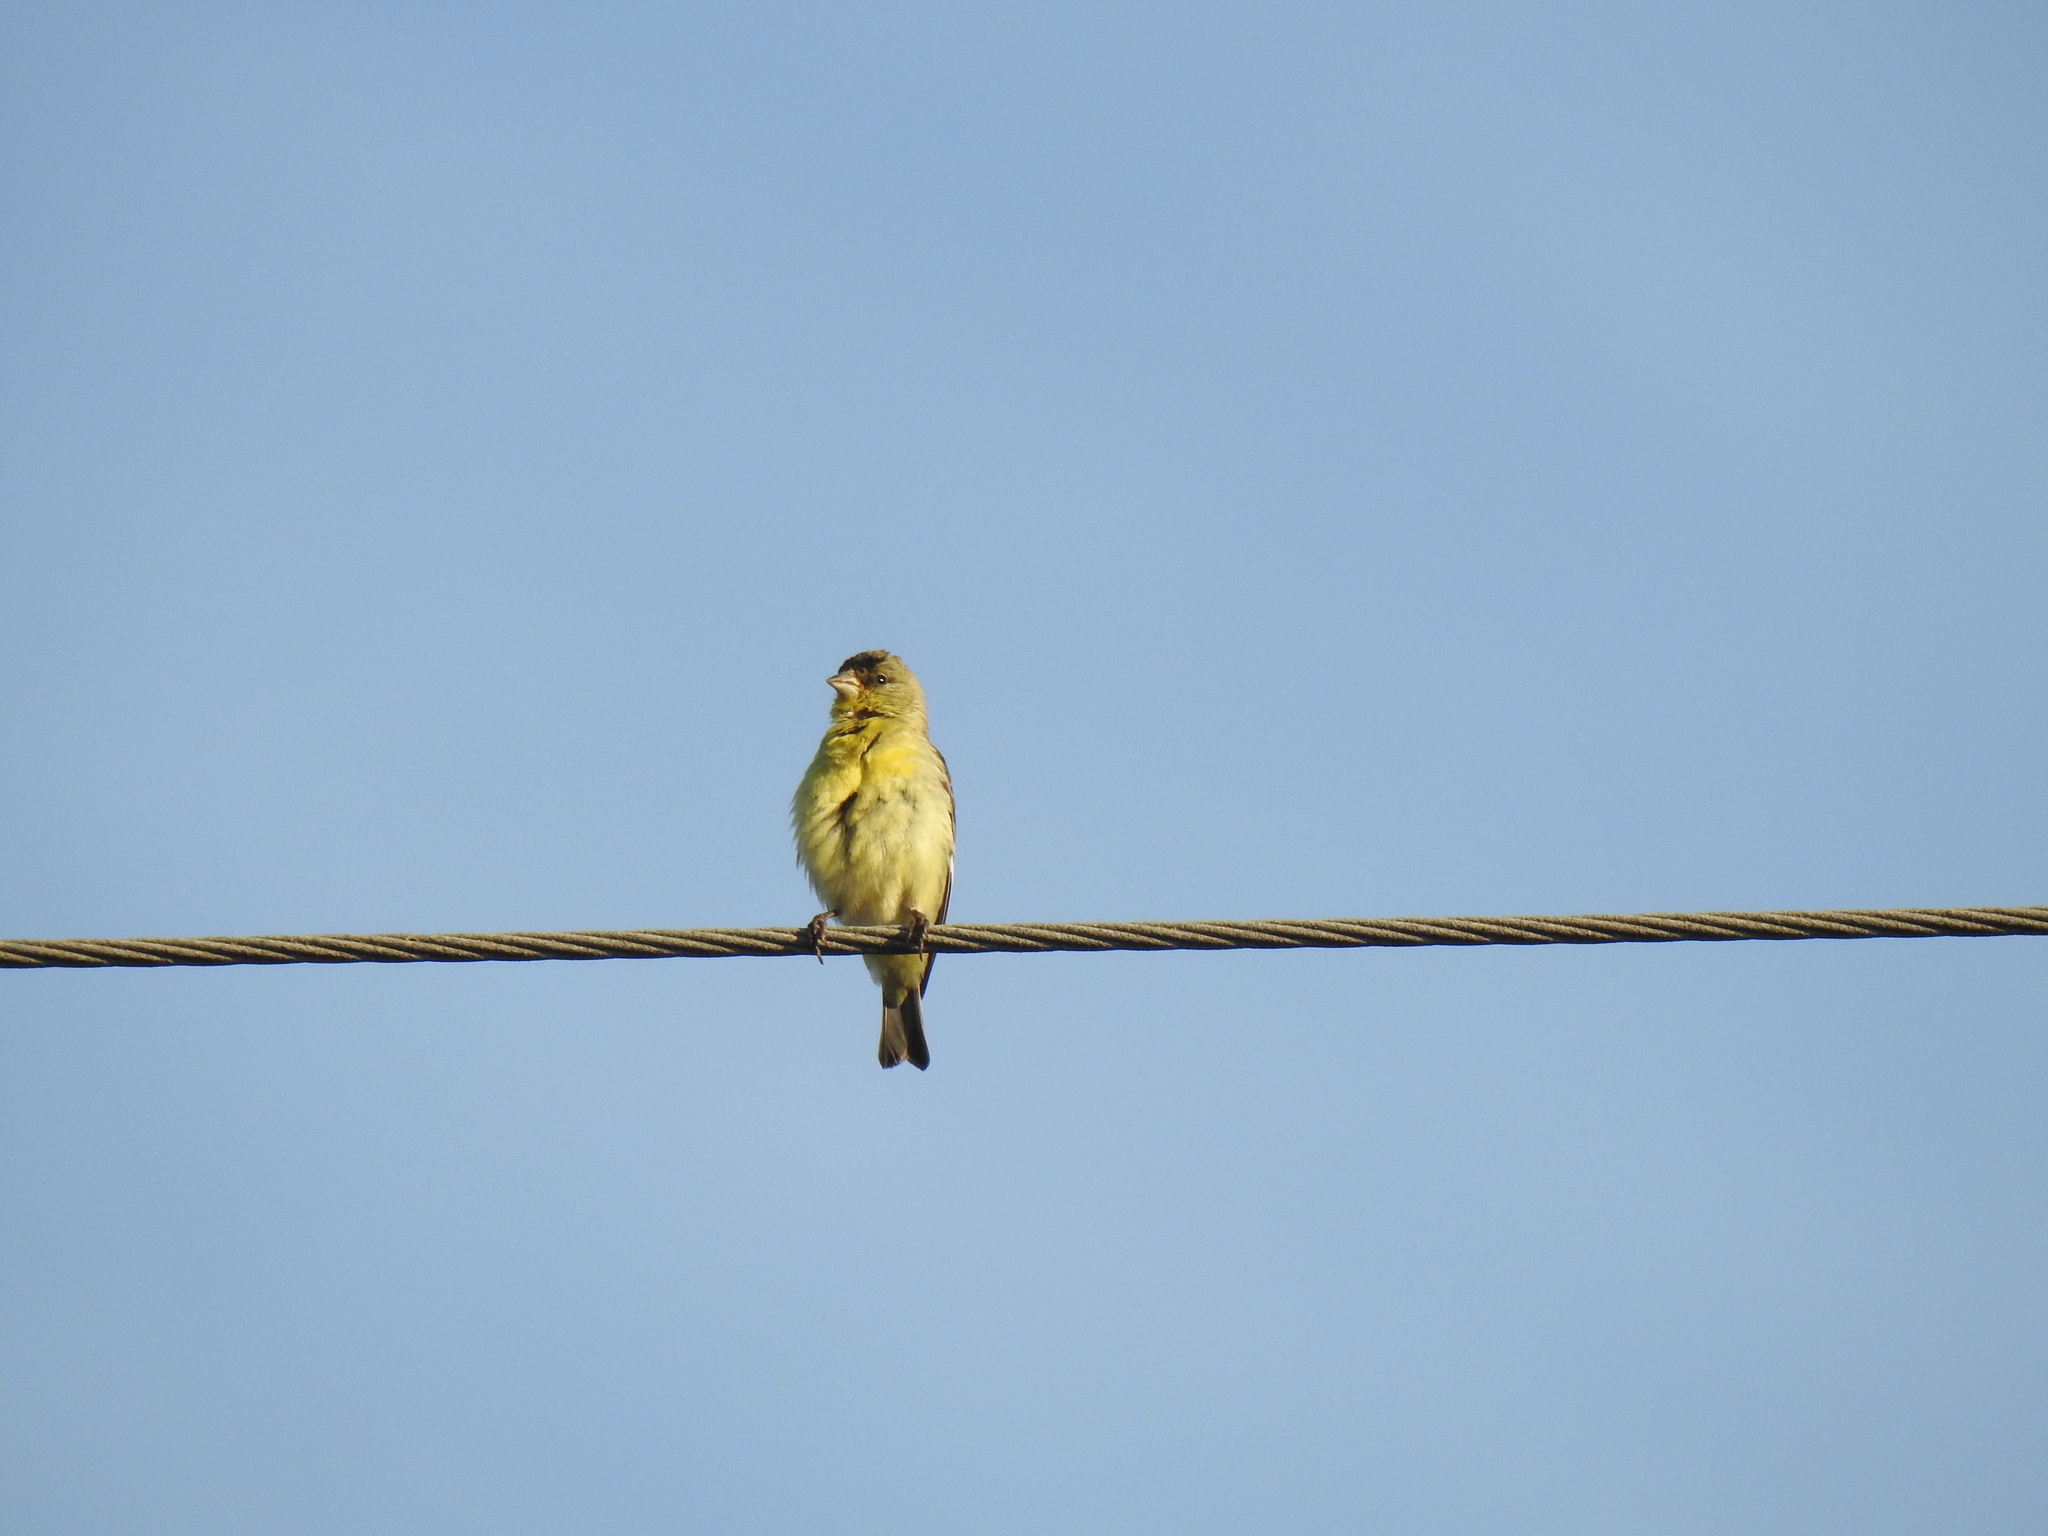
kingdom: Animalia
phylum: Chordata
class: Aves
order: Passeriformes
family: Fringillidae
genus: Spinus
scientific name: Spinus psaltria
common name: Lesser goldfinch
